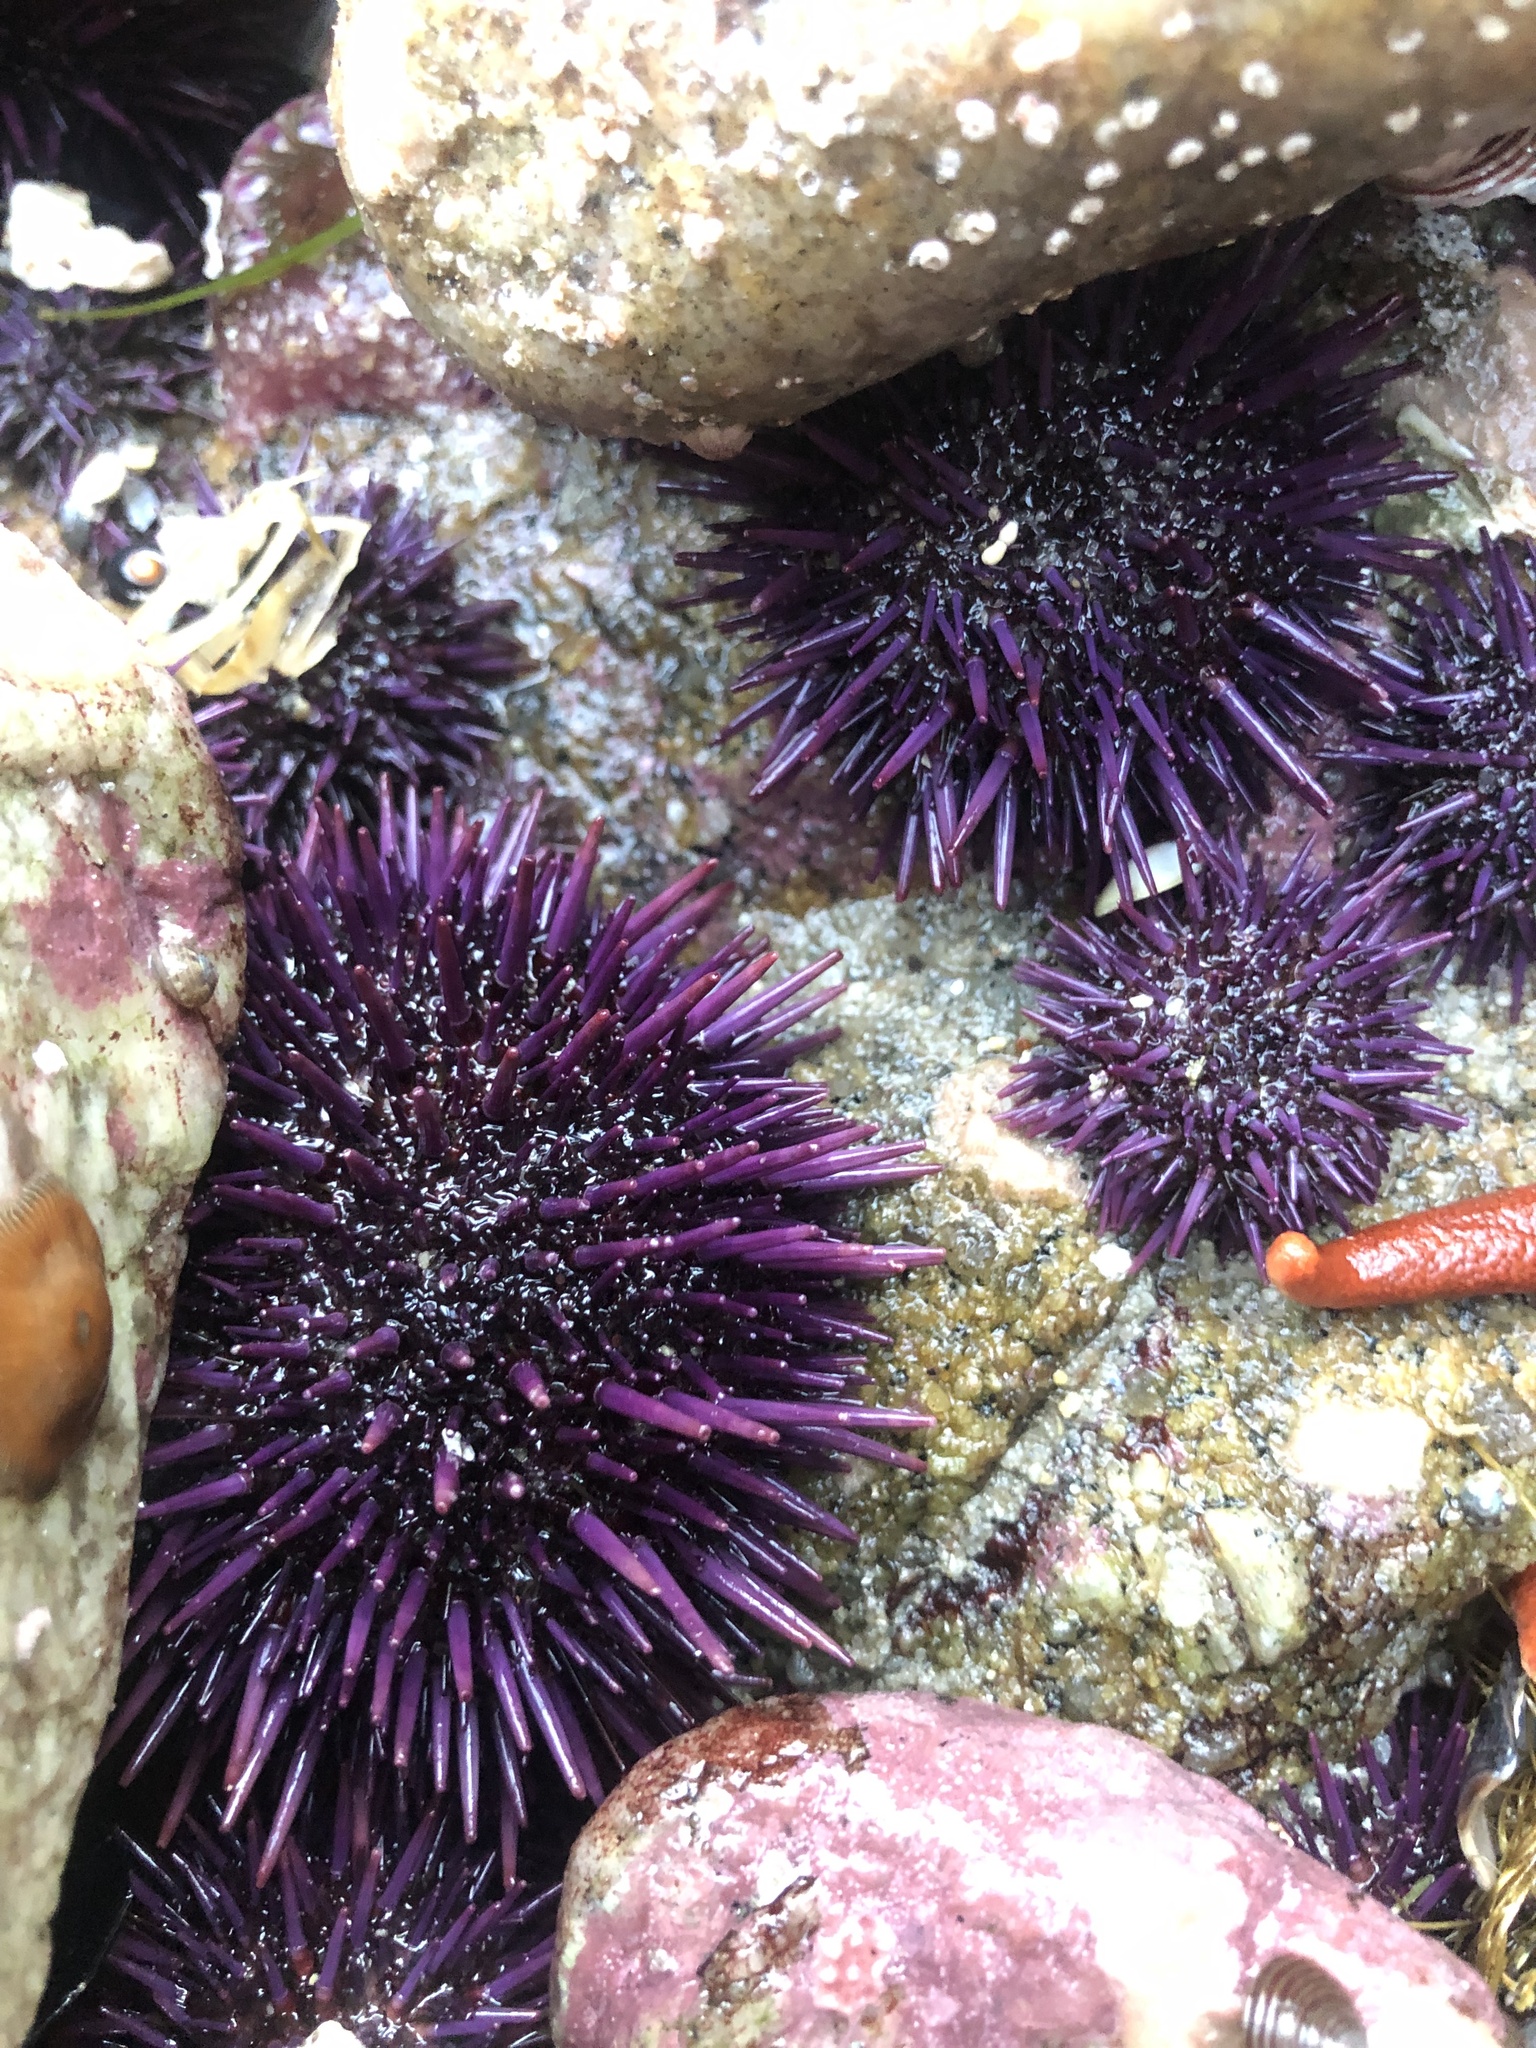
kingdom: Animalia
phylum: Echinodermata
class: Echinoidea
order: Camarodonta
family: Strongylocentrotidae
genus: Strongylocentrotus
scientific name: Strongylocentrotus purpuratus
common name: Purple sea urchin
